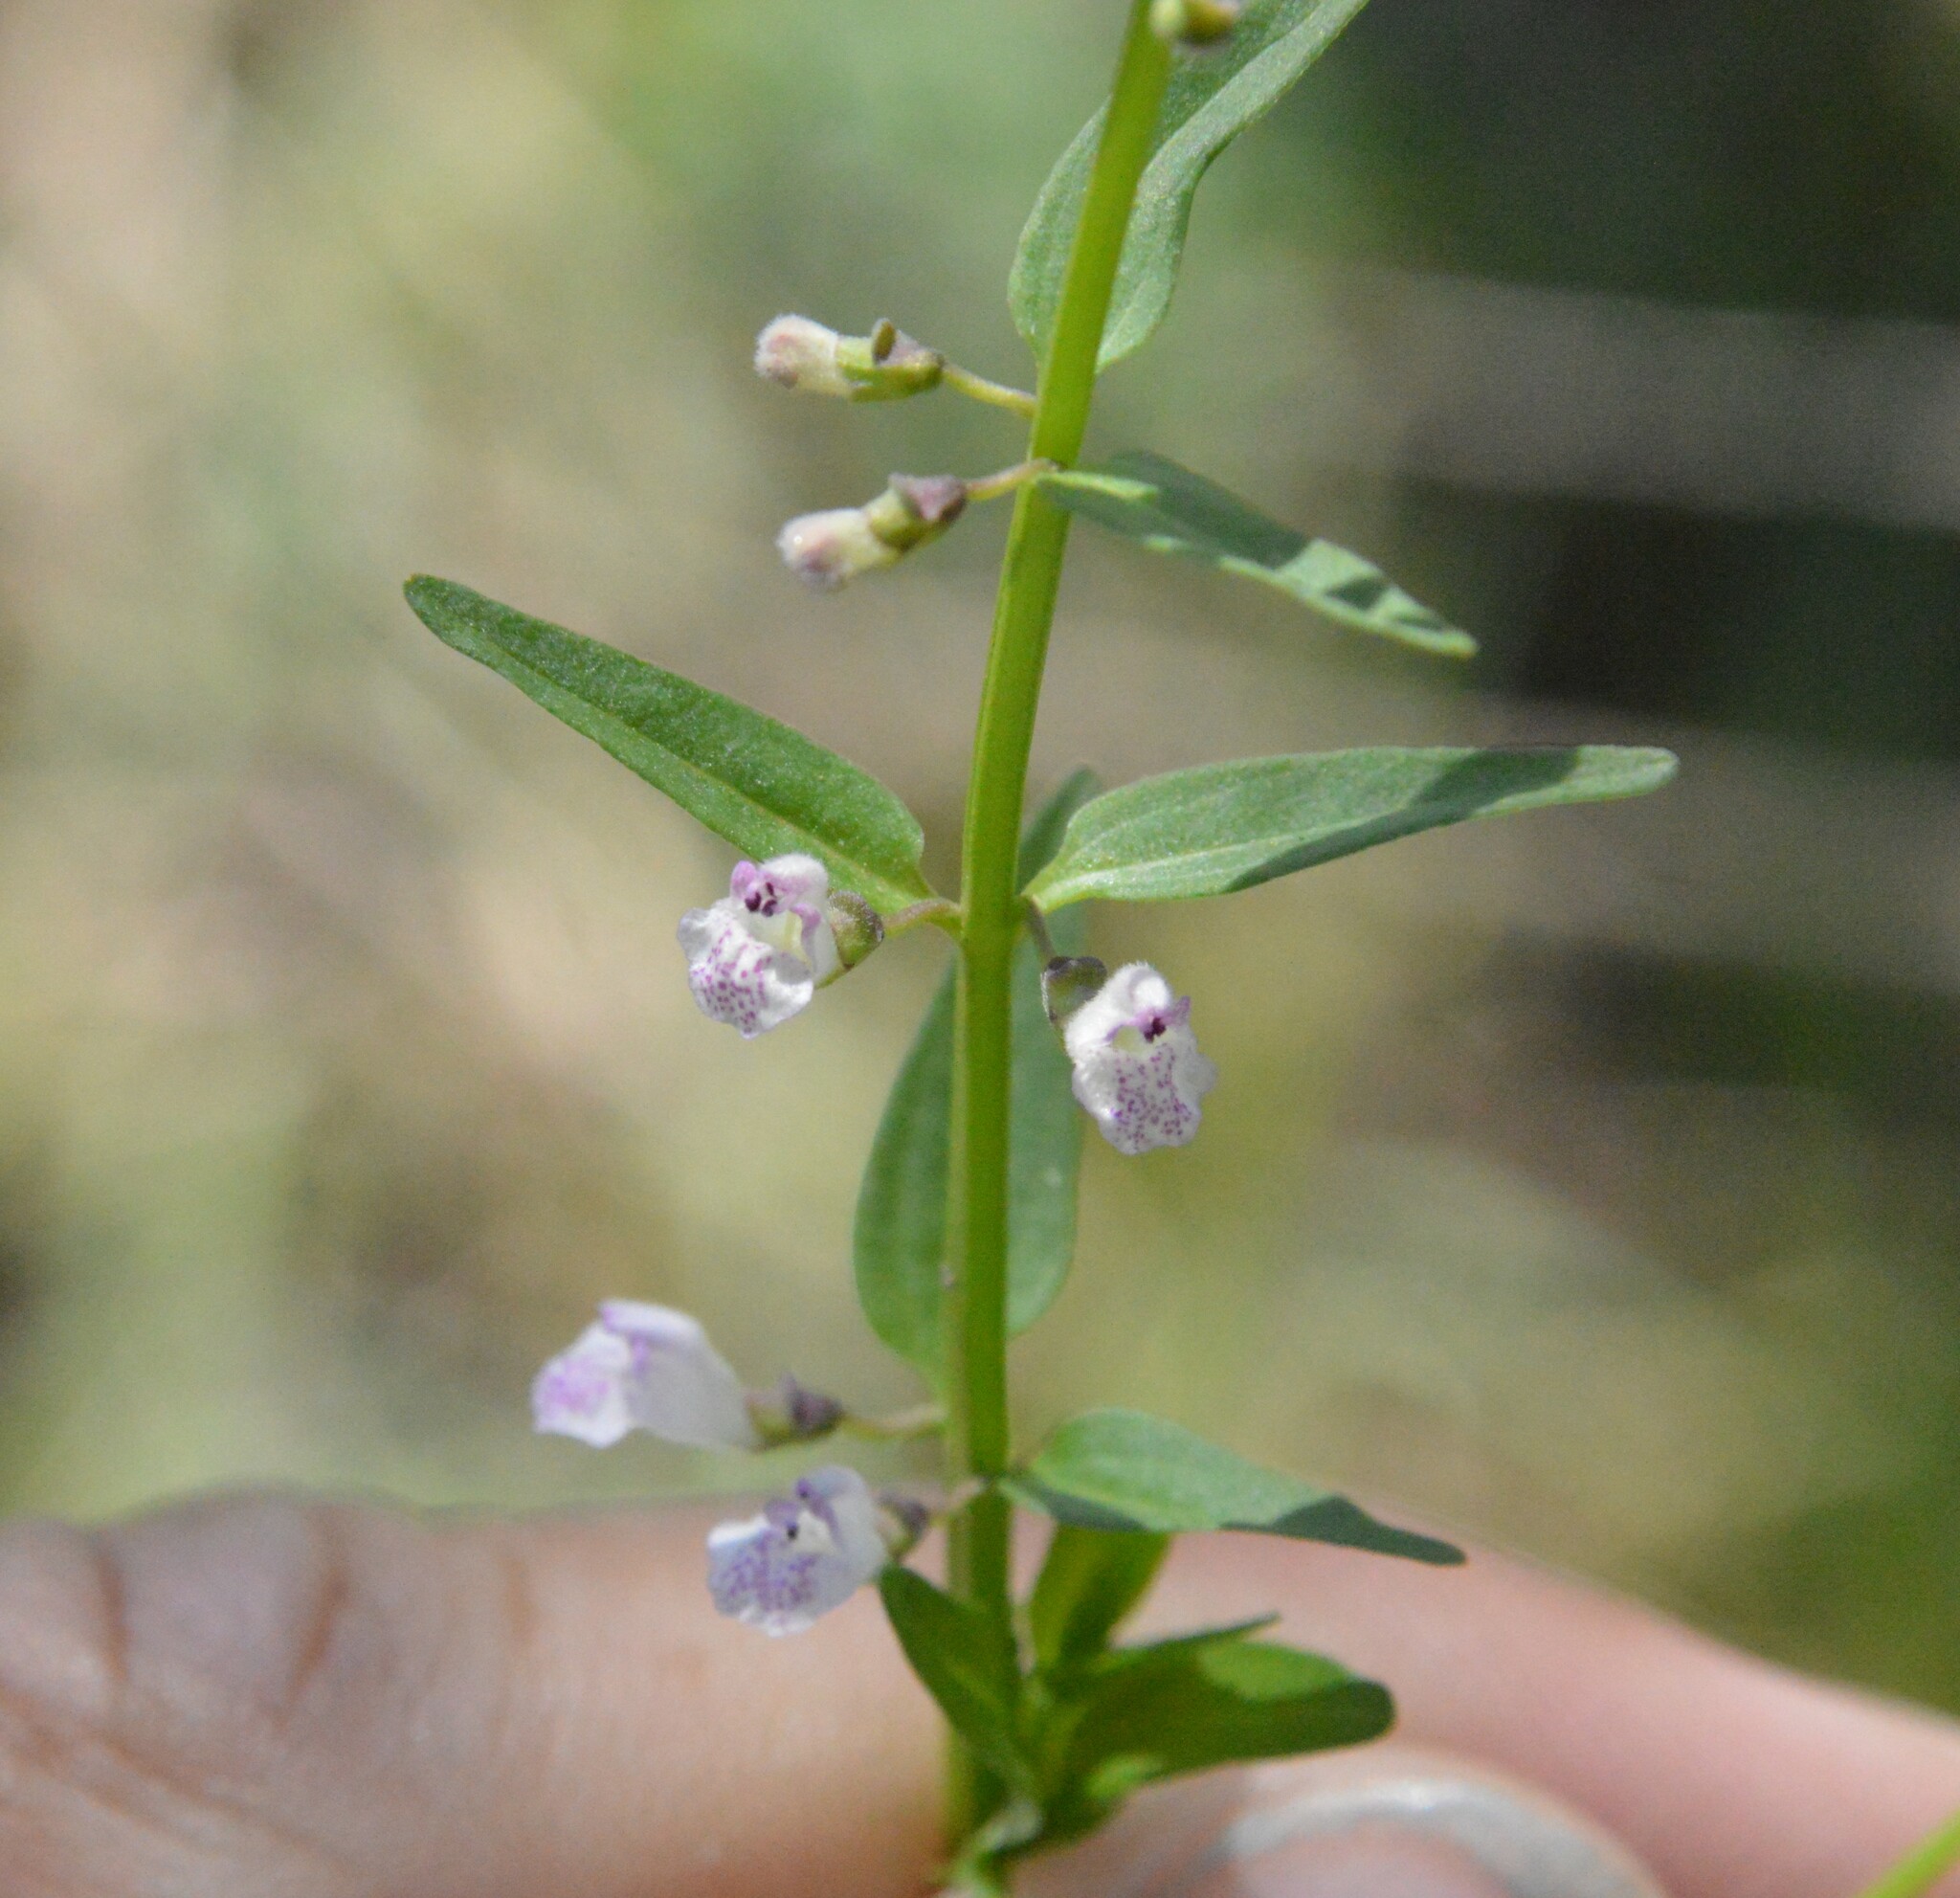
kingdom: Plantae
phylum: Tracheophyta
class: Magnoliopsida
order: Lamiales
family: Lamiaceae
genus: Scutellaria
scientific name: Scutellaria racemosa
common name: South american skullcap
